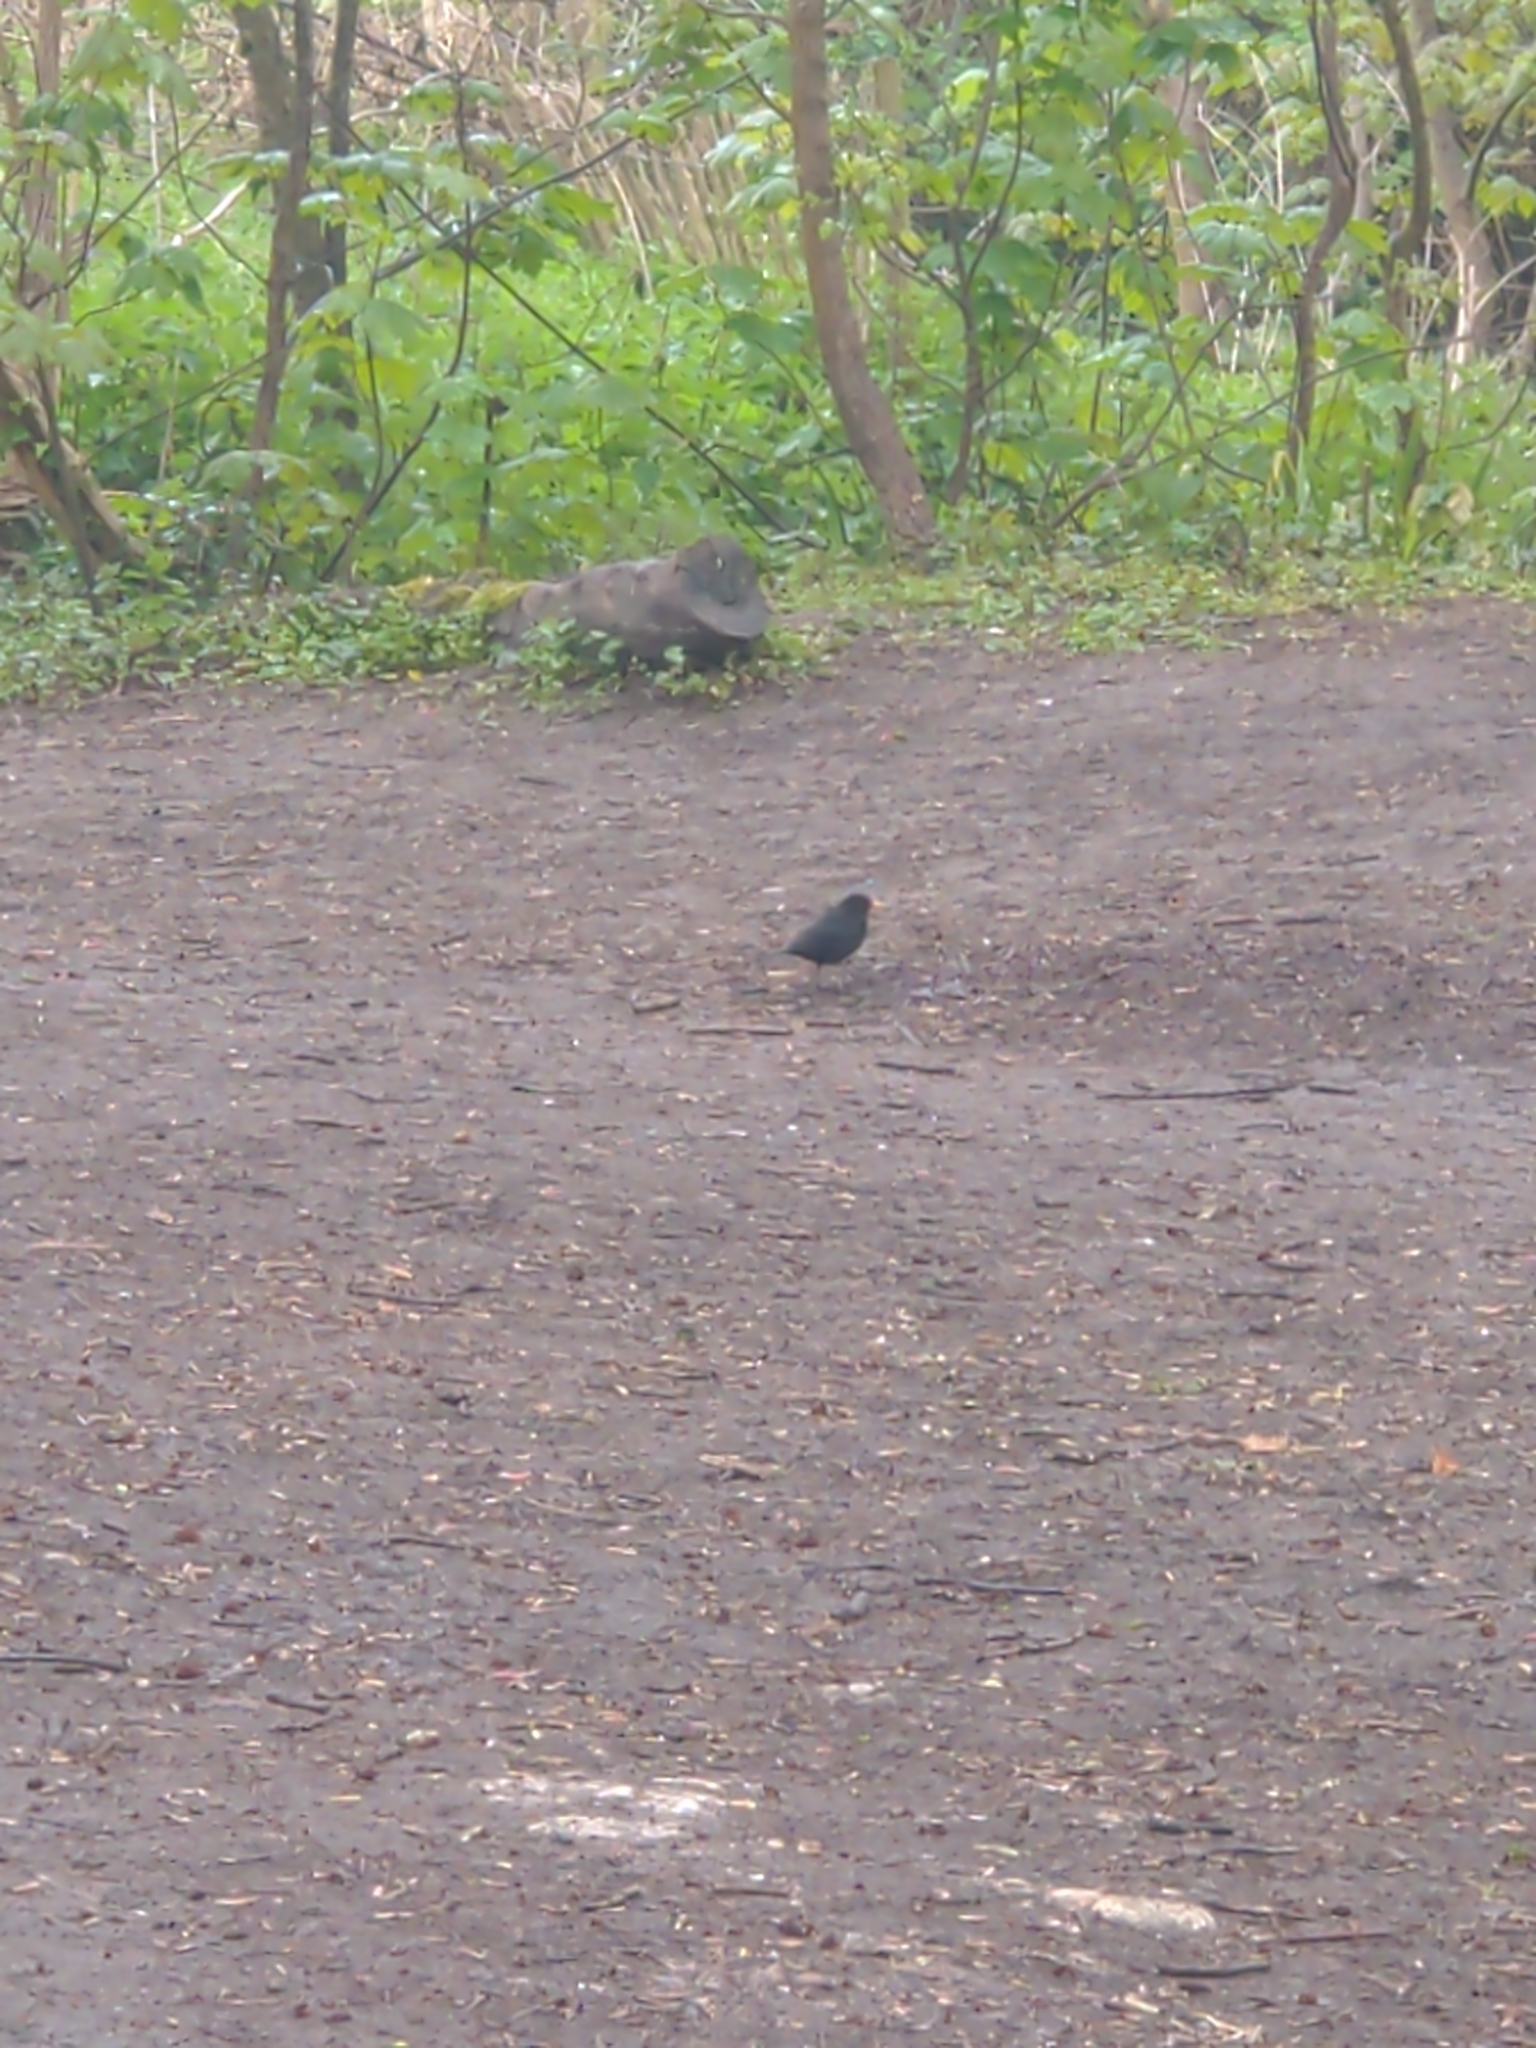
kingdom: Animalia
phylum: Chordata
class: Aves
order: Passeriformes
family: Turdidae
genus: Turdus
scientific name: Turdus merula
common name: Common blackbird
